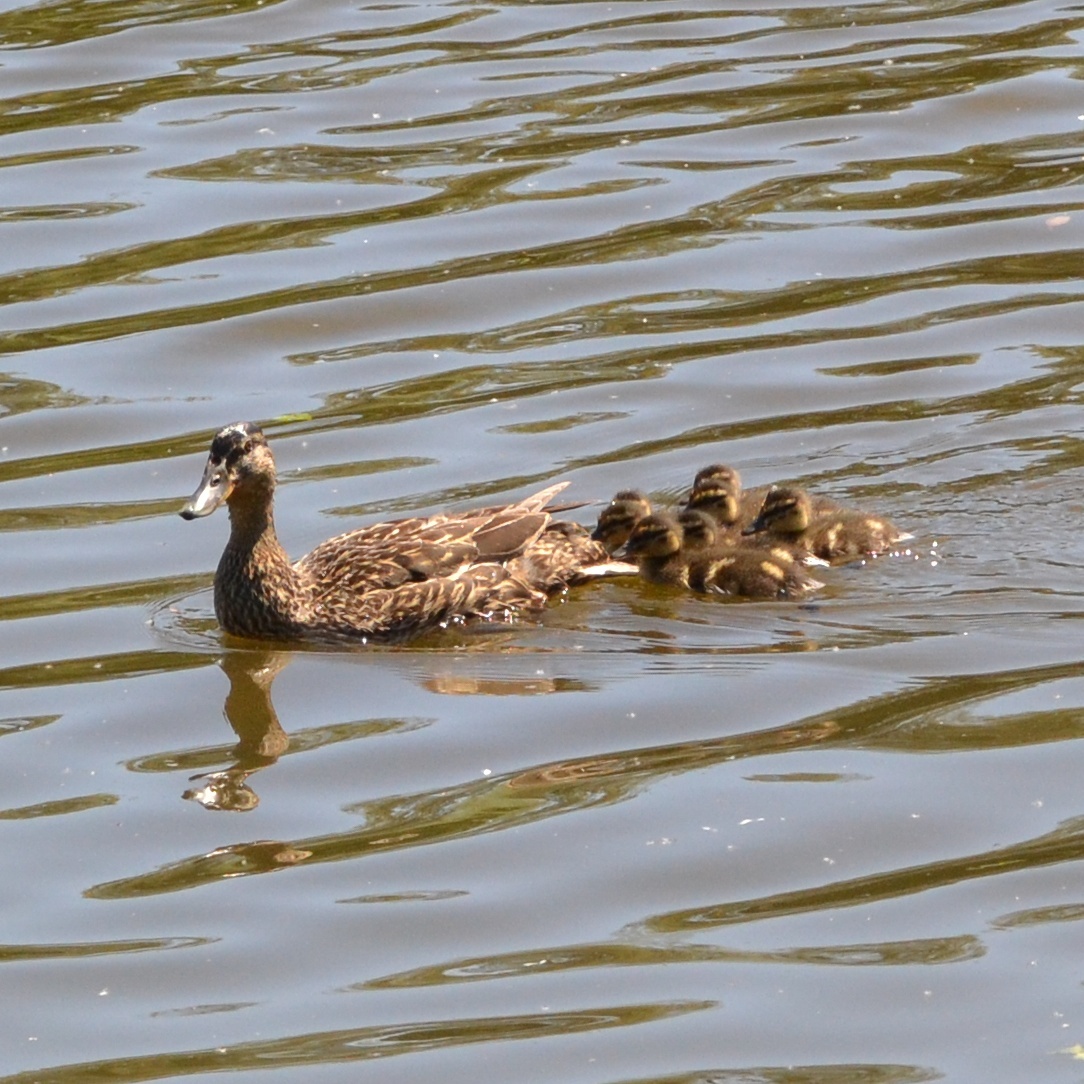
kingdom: Animalia
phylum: Chordata
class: Aves
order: Anseriformes
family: Anatidae
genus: Anas
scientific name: Anas platyrhynchos
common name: Mallard
